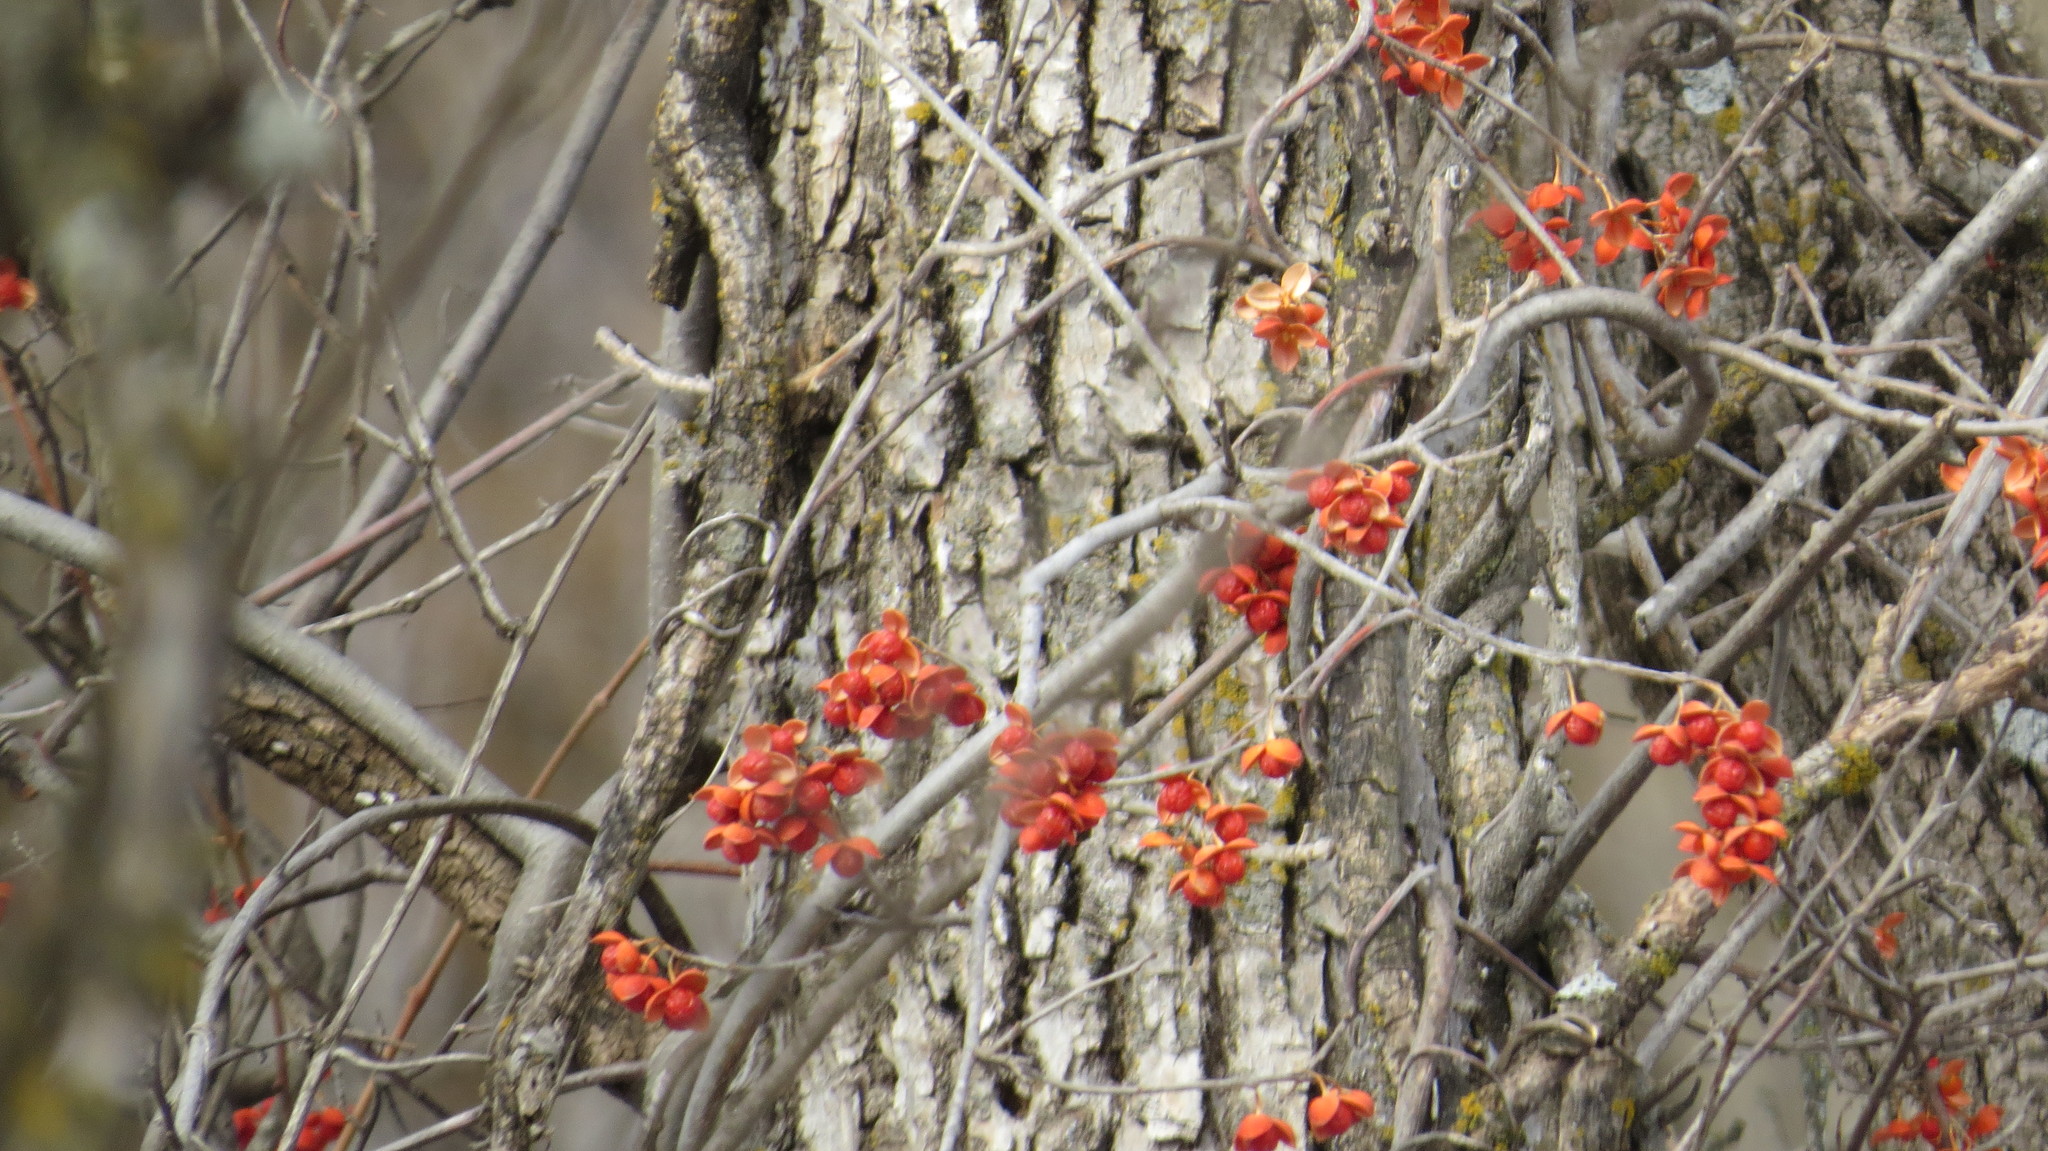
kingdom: Plantae
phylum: Tracheophyta
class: Magnoliopsida
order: Celastrales
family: Celastraceae
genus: Celastrus
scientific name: Celastrus scandens
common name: American bittersweet
